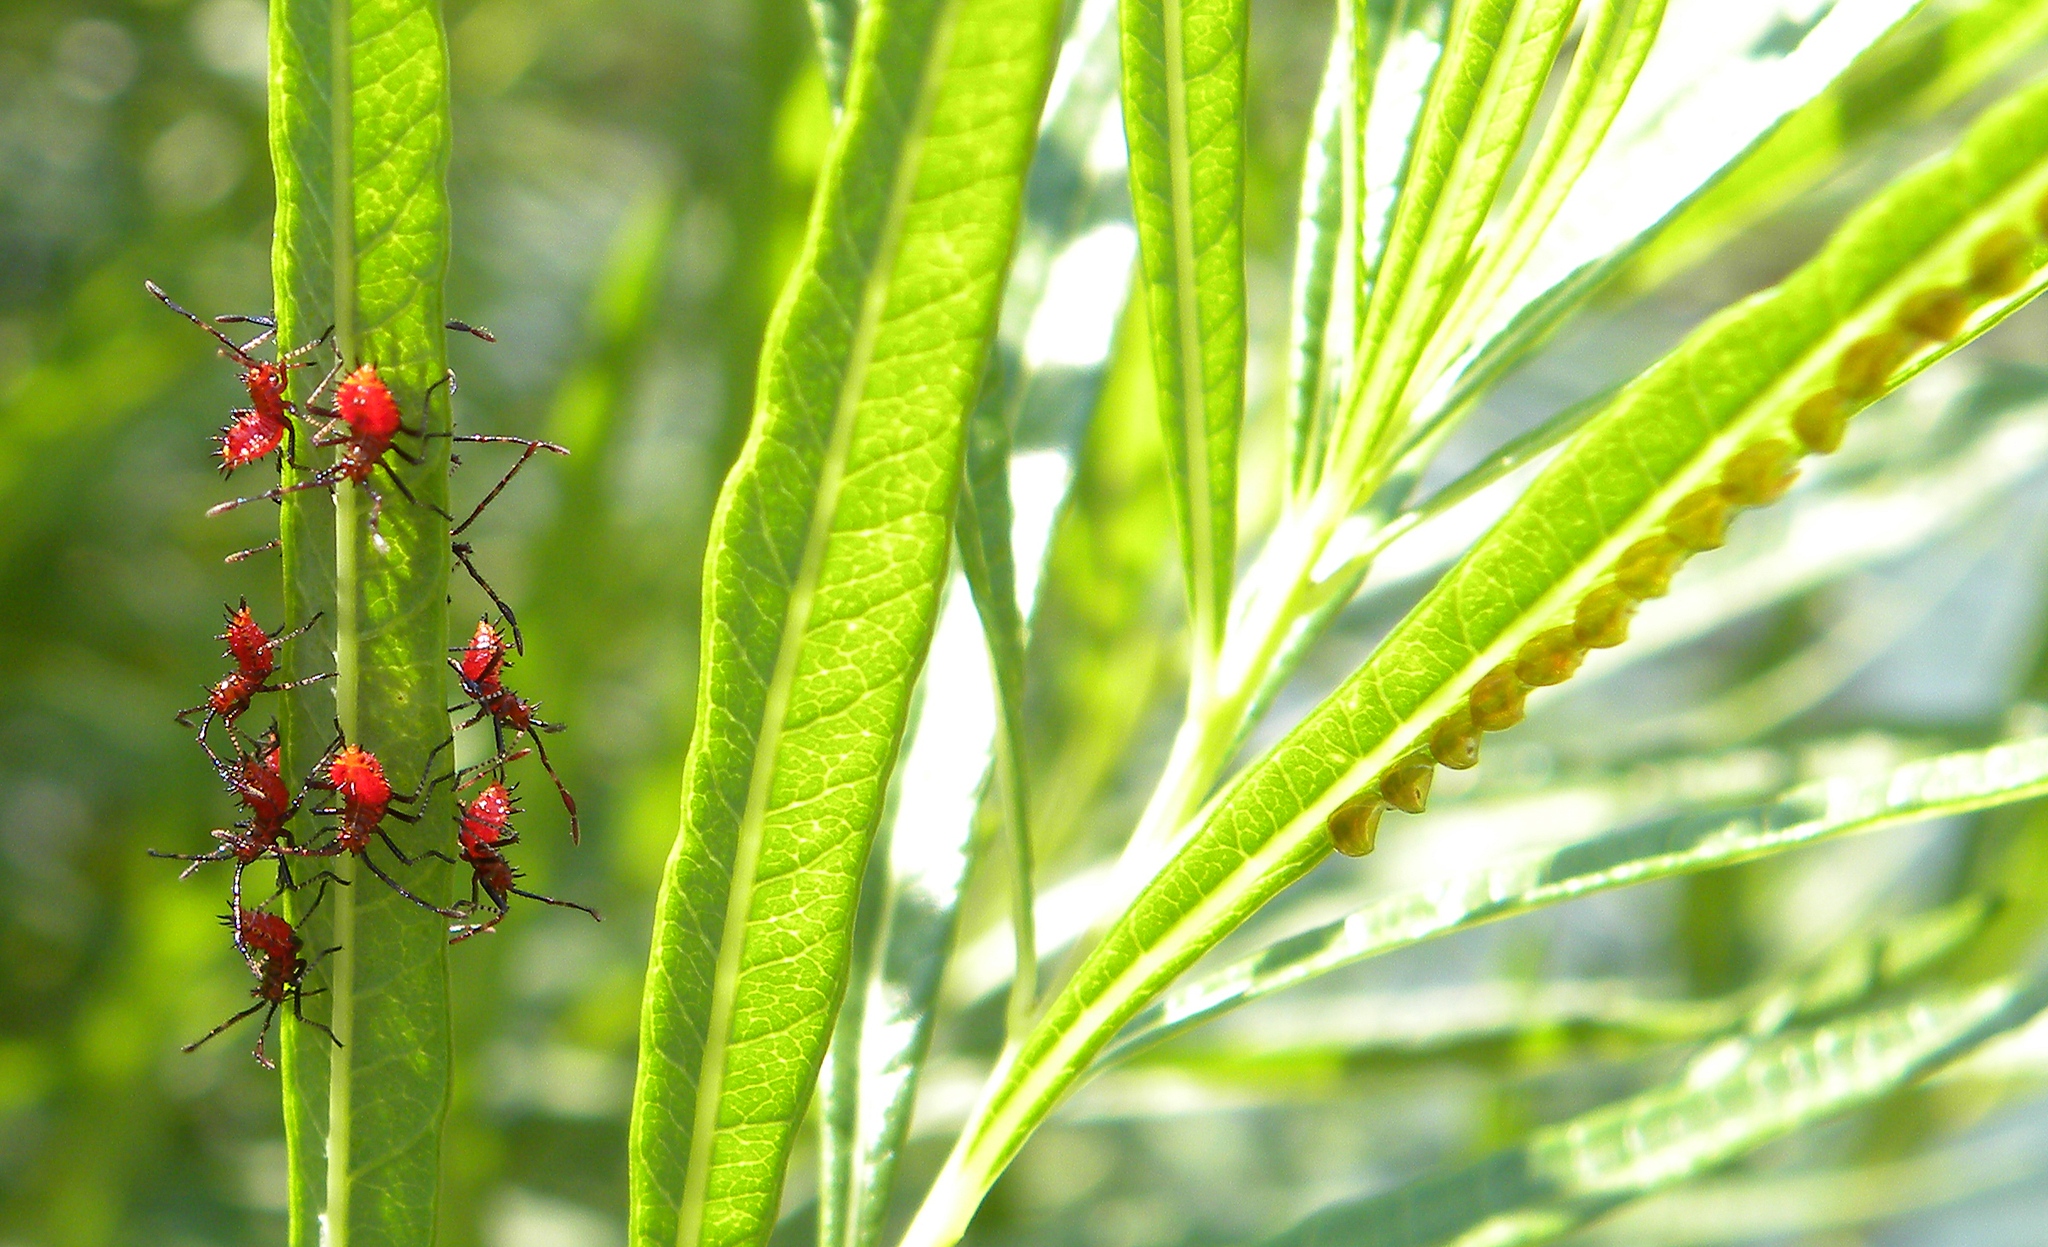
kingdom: Animalia
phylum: Arthropoda
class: Insecta
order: Hemiptera
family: Coreidae
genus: Euthochtha
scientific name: Euthochtha galeator
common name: Helmeted squash bug
